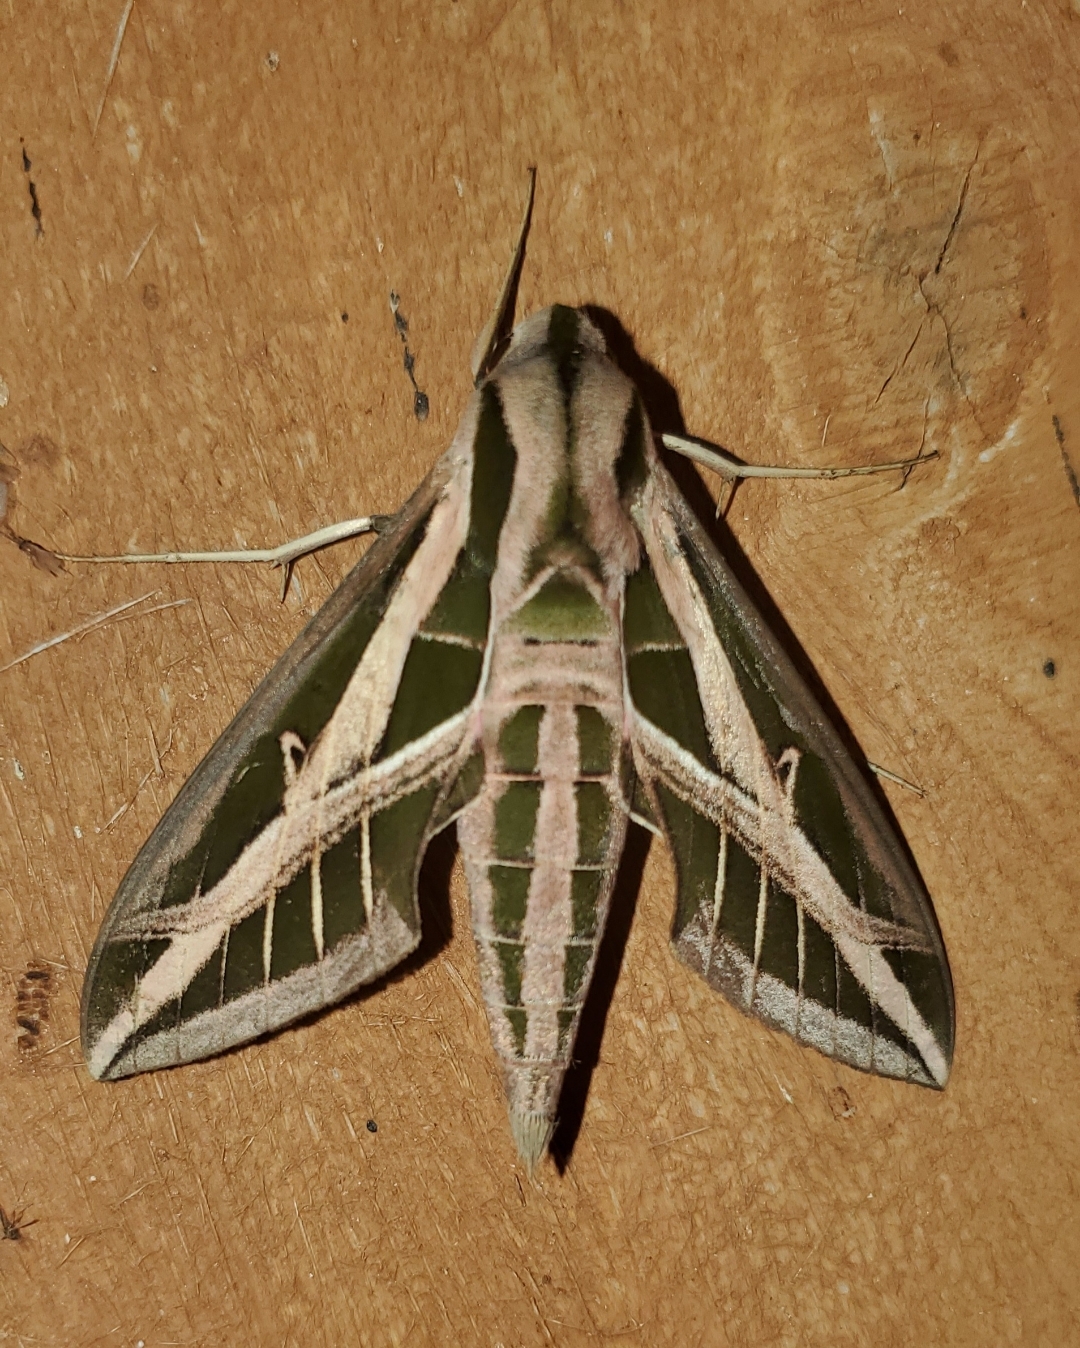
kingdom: Animalia
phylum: Arthropoda
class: Insecta
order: Lepidoptera
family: Sphingidae
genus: Eumorpha
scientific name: Eumorpha fasciatus
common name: Banded sphinx
